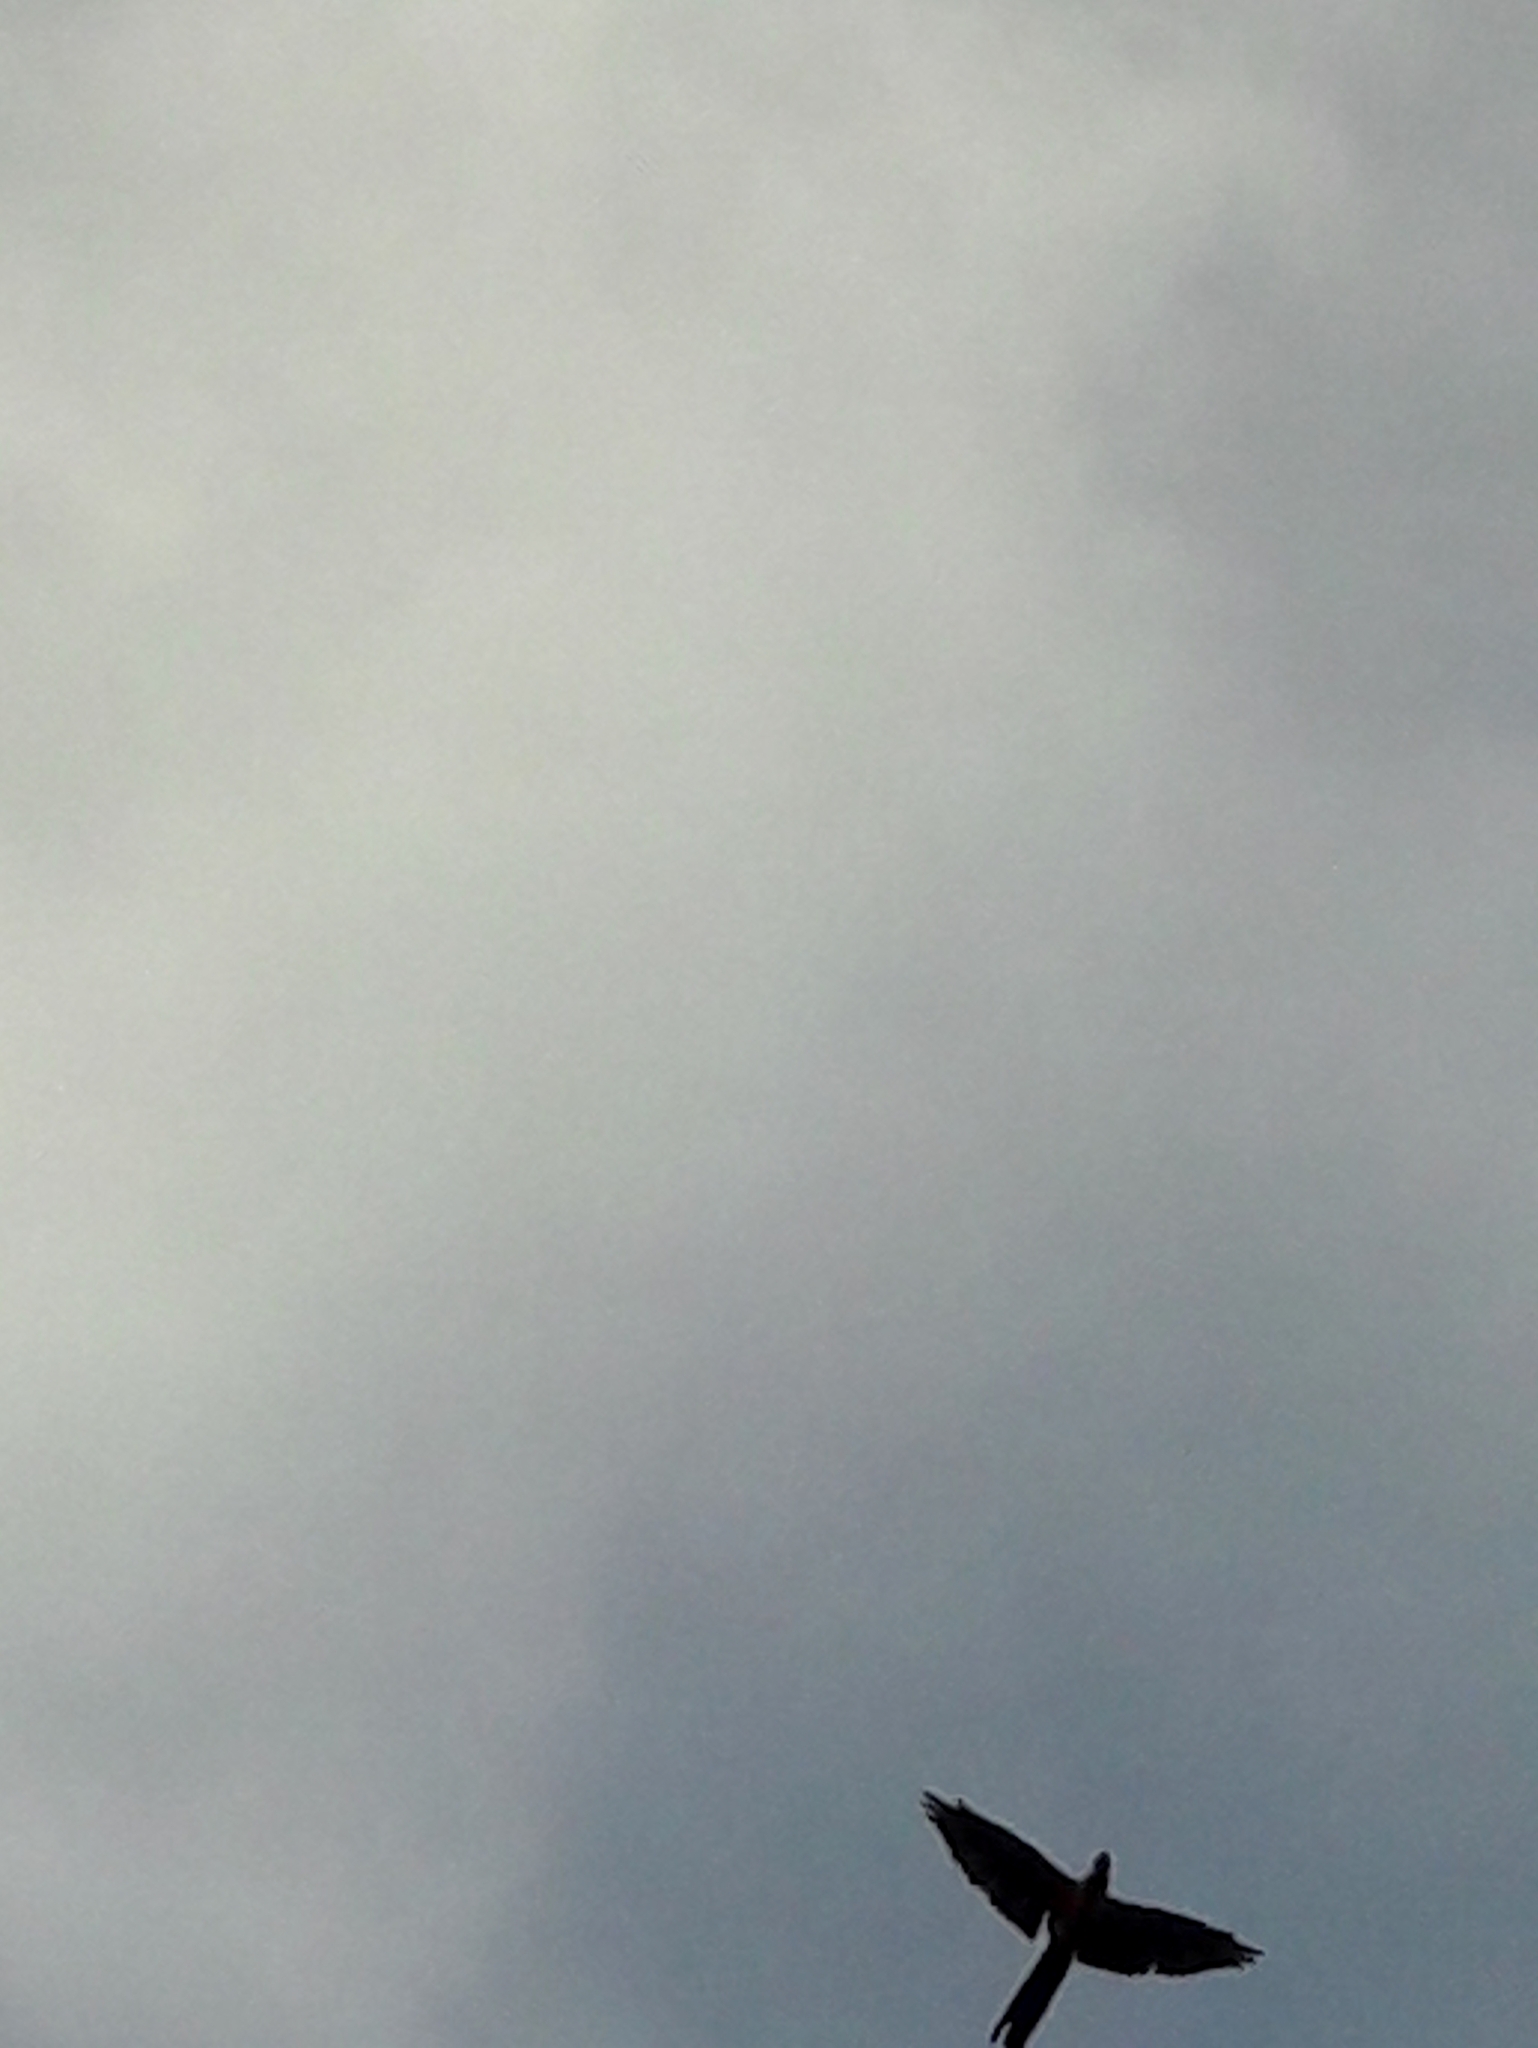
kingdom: Animalia
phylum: Chordata
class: Aves
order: Psittaciformes
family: Psittacidae
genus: Ara
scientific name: Ara ararauna
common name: Blue-and-yellow macaw
